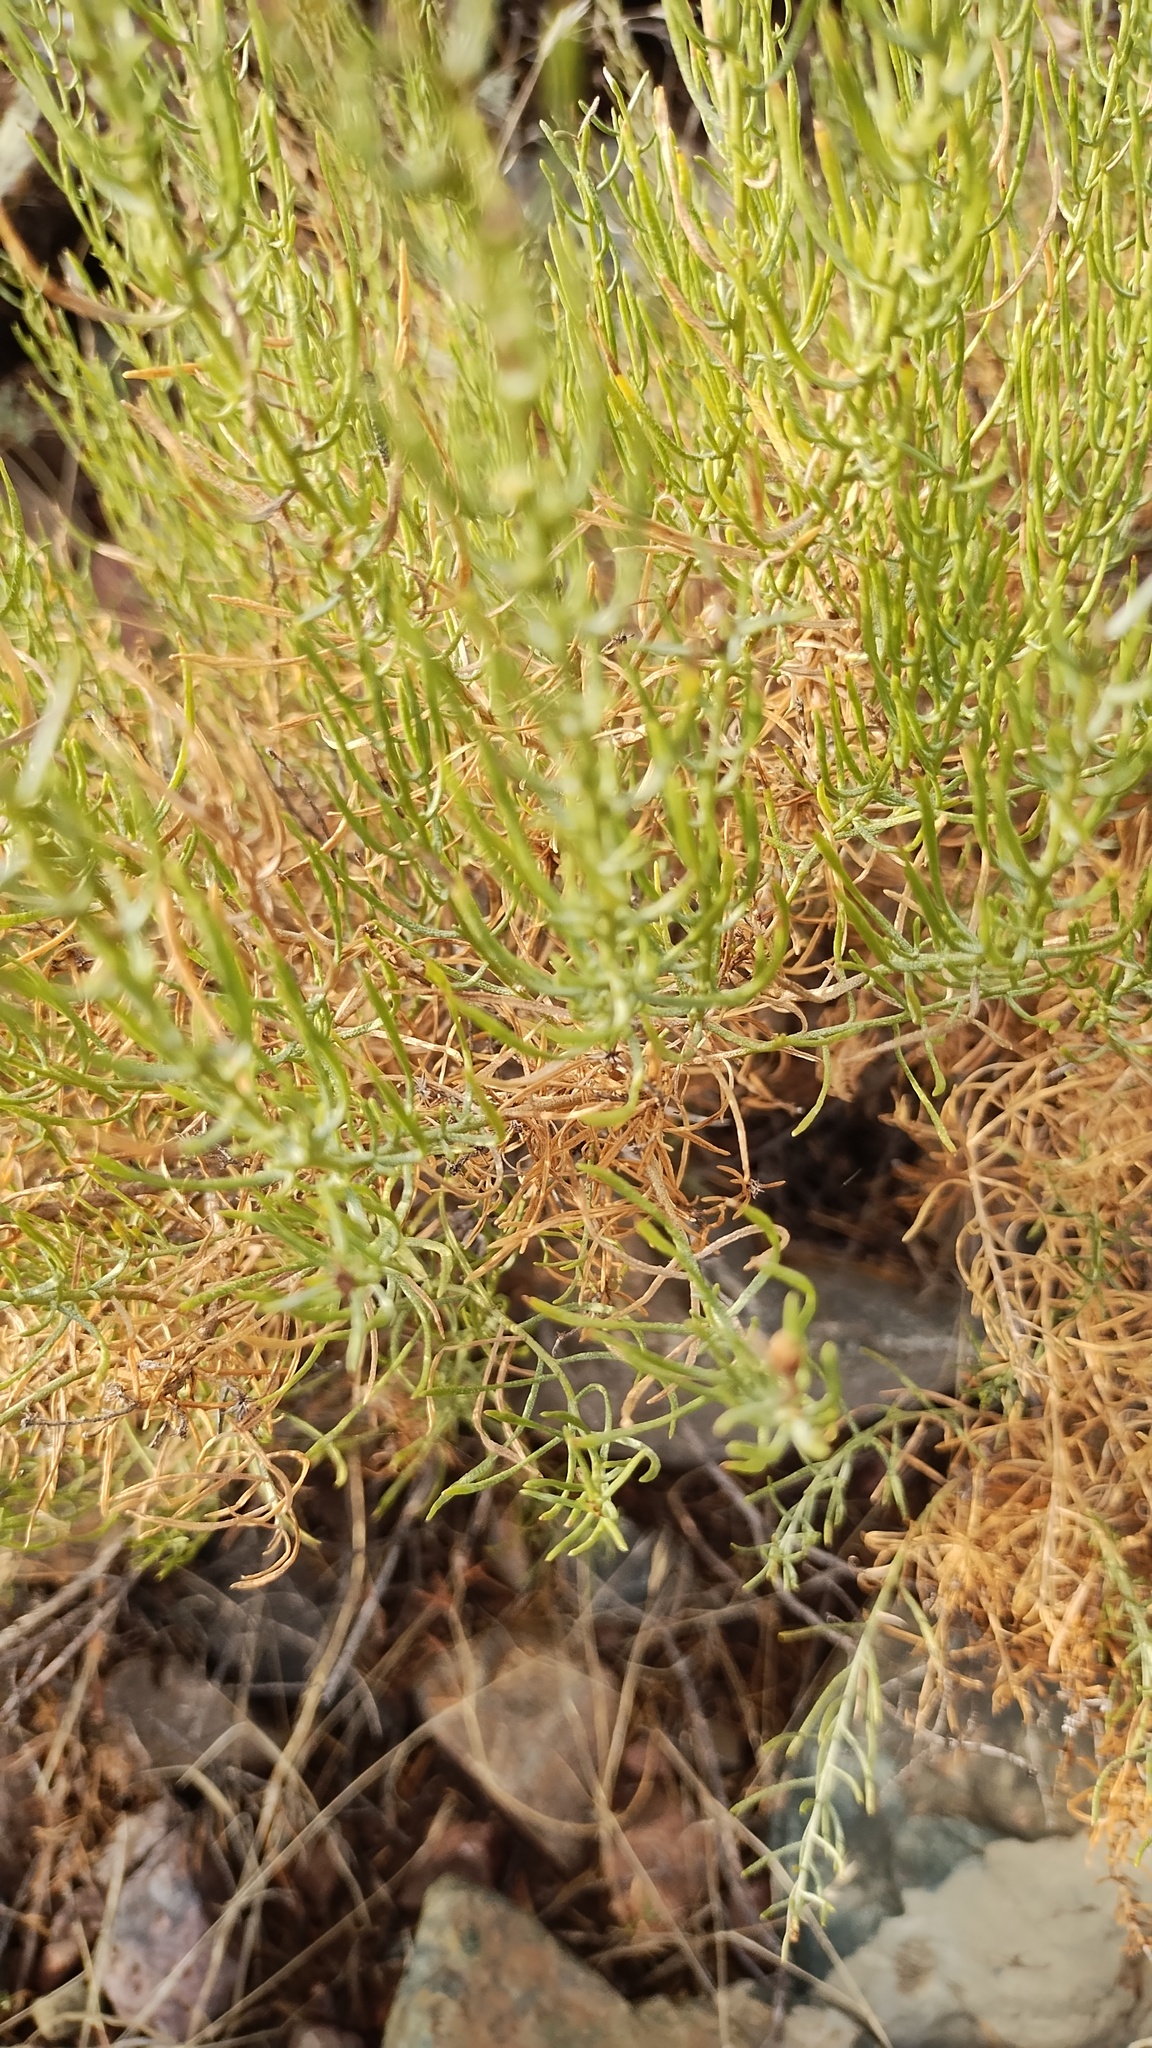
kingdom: Plantae
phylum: Tracheophyta
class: Magnoliopsida
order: Asterales
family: Asteraceae
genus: Ericameria
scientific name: Ericameria laricifolia
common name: Turpentine-bush
